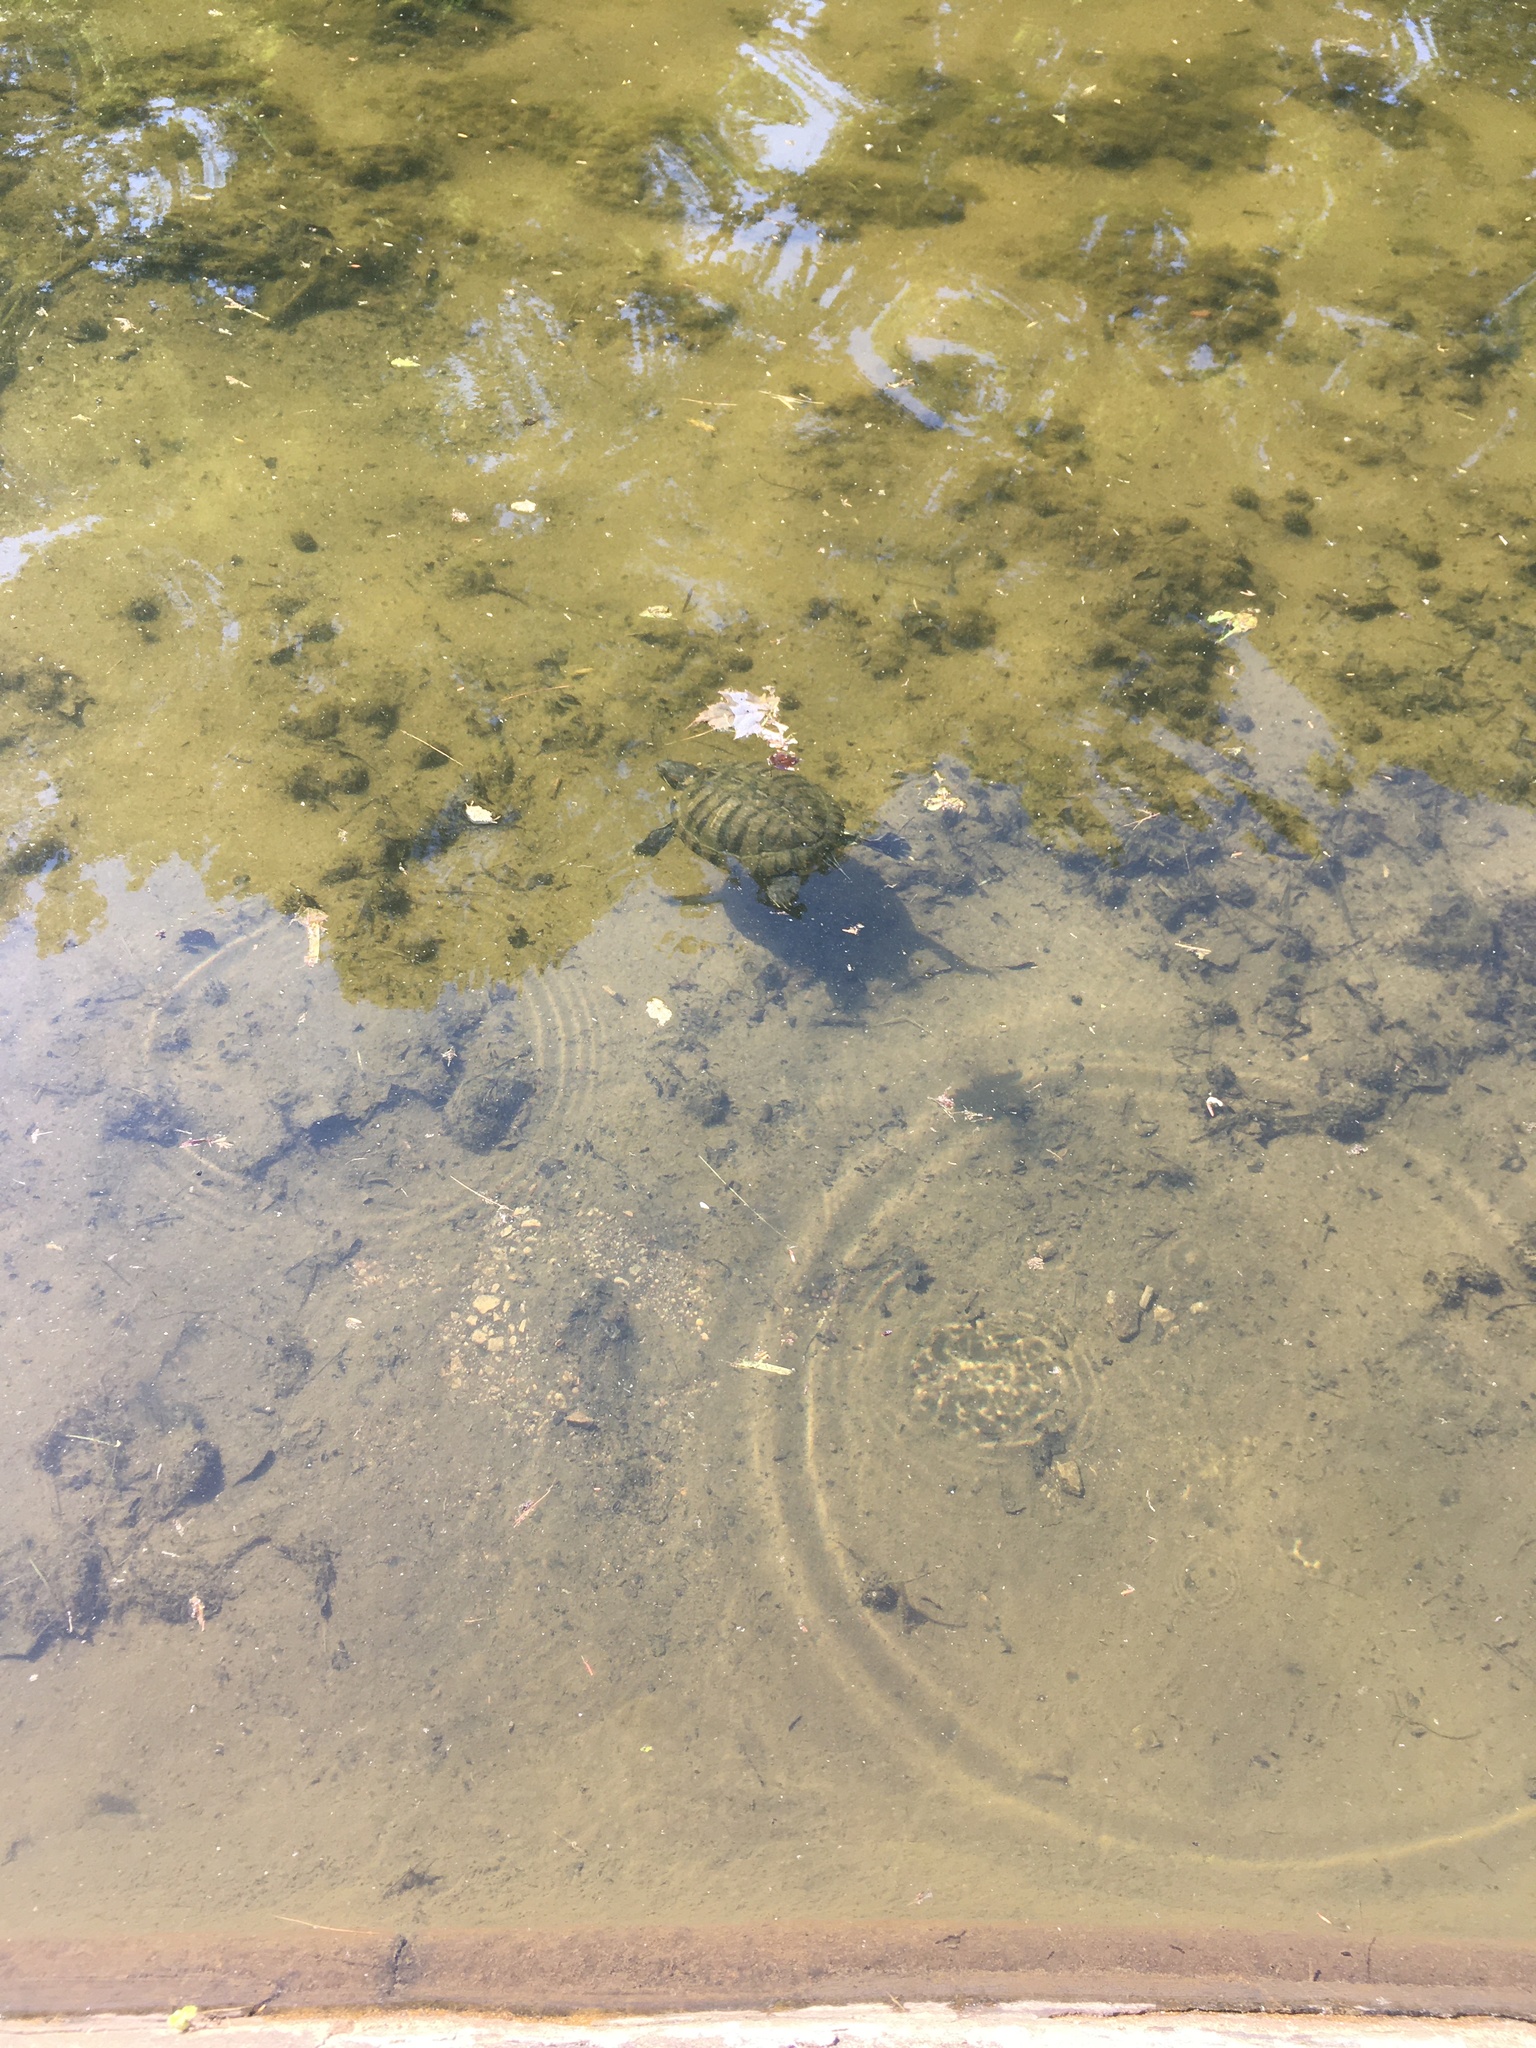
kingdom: Animalia
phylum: Chordata
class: Testudines
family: Emydidae
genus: Trachemys
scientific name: Trachemys scripta
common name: Slider
